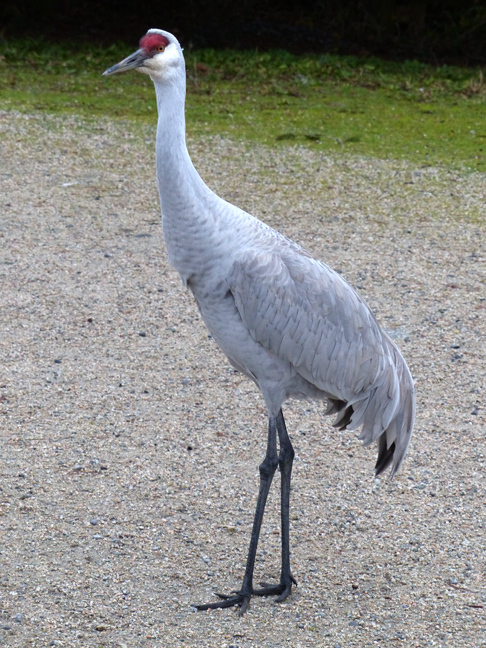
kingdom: Animalia
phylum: Chordata
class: Aves
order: Gruiformes
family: Gruidae
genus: Grus
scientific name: Grus canadensis
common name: Sandhill crane
